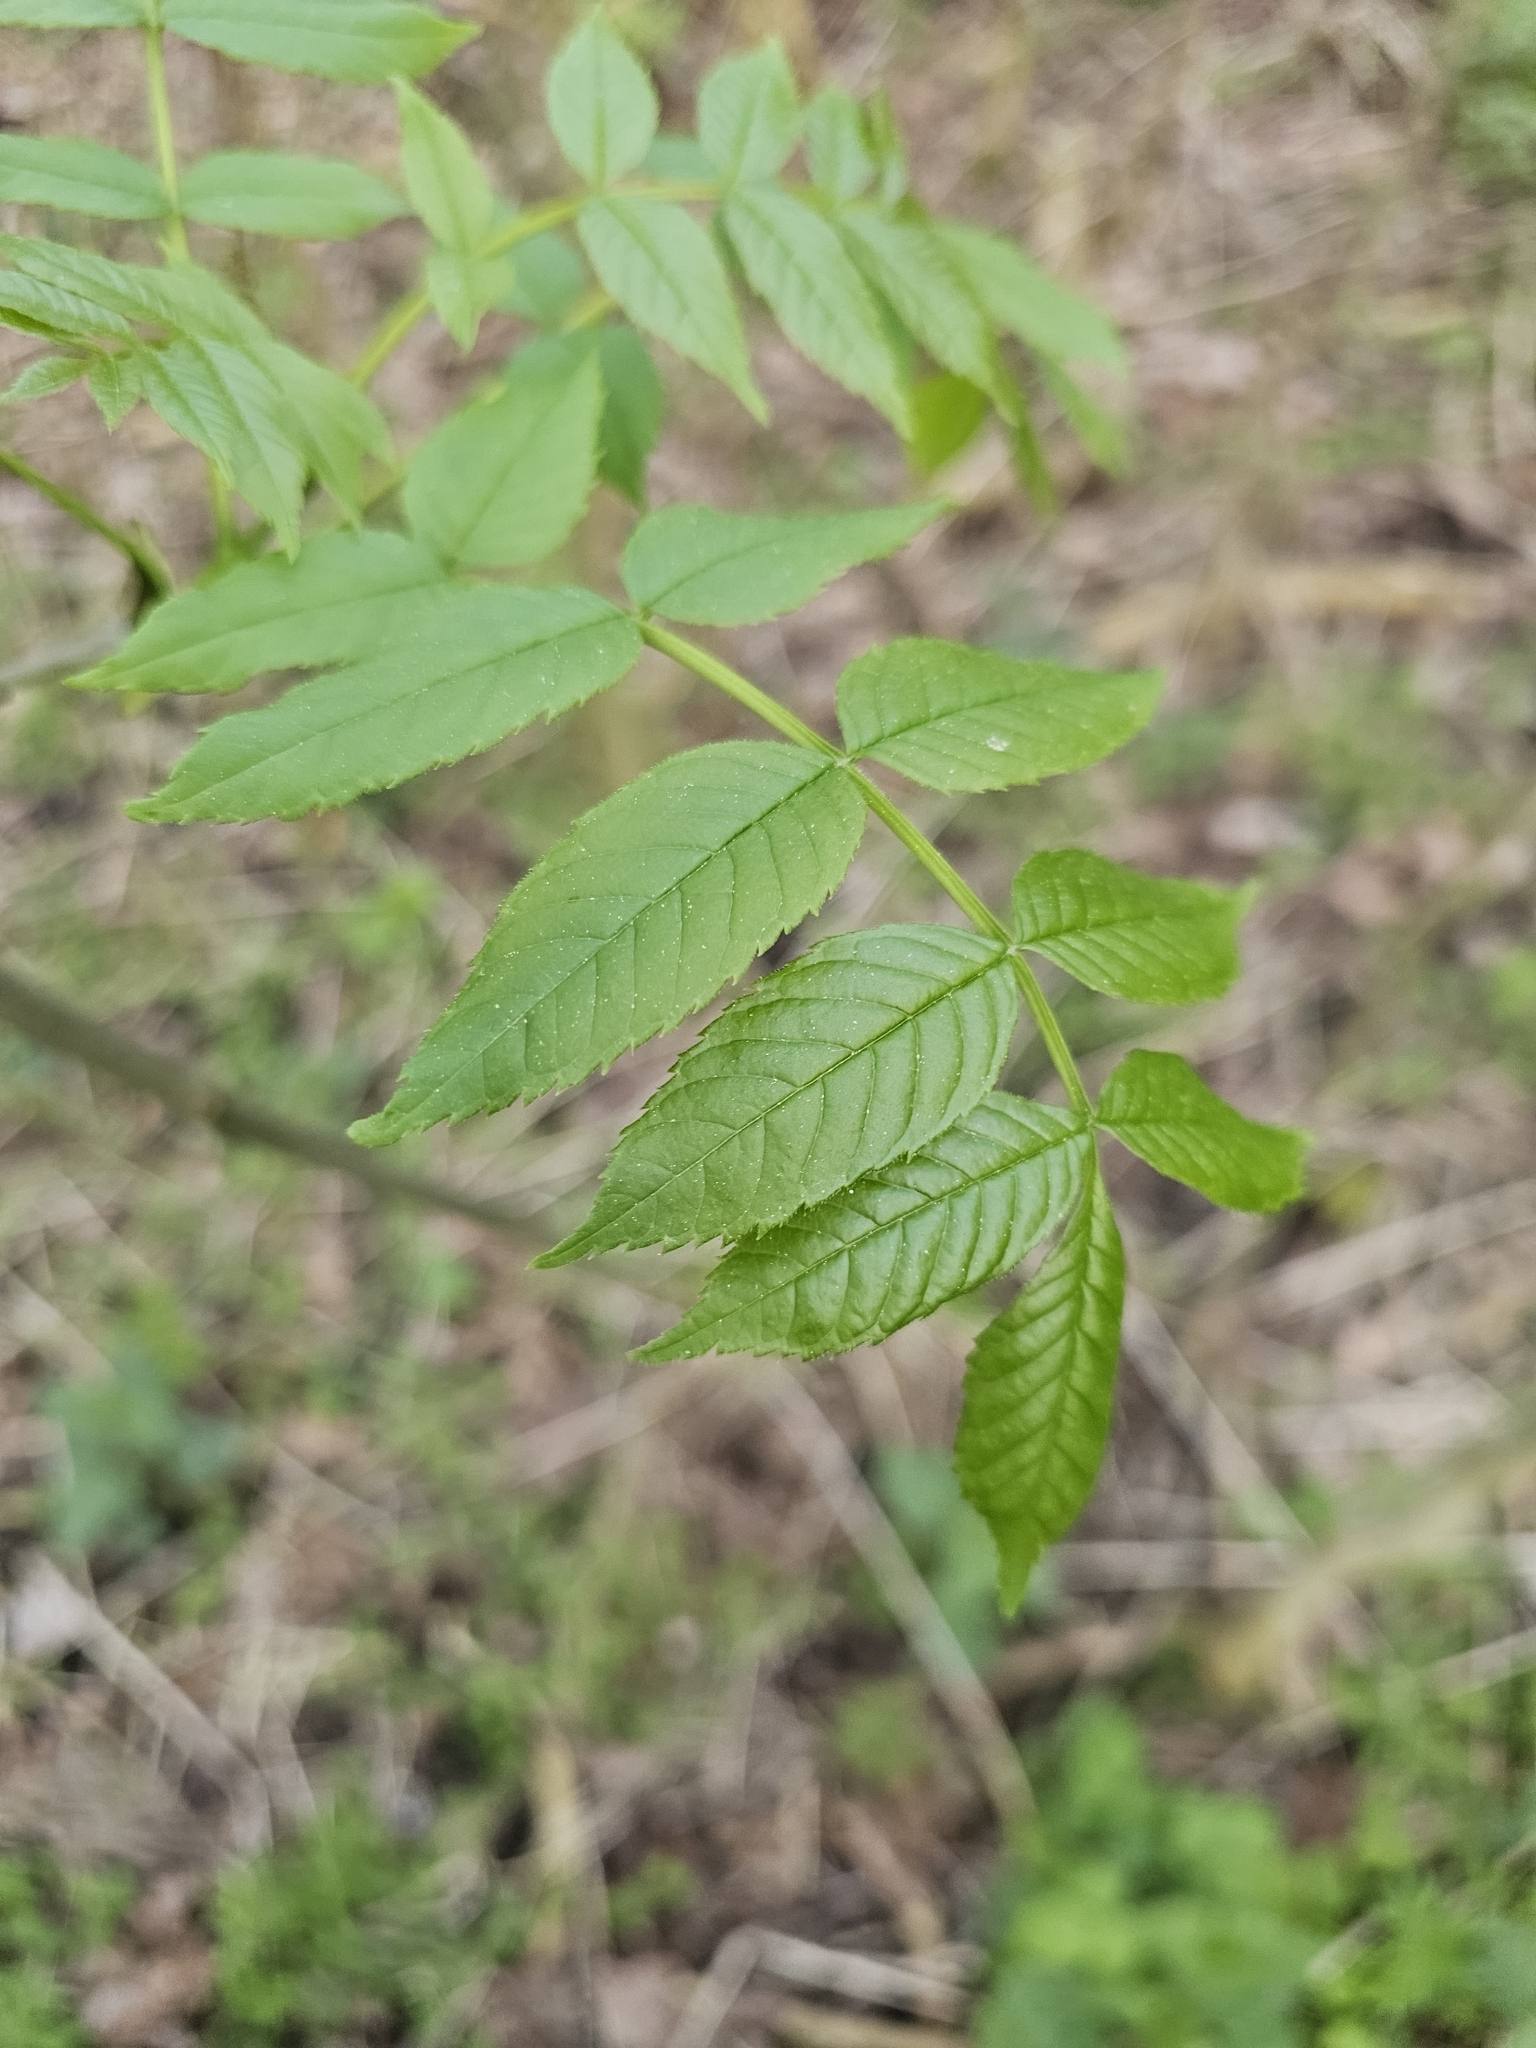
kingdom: Plantae
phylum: Tracheophyta
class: Magnoliopsida
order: Lamiales
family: Oleaceae
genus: Fraxinus
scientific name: Fraxinus excelsior
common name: European ash
